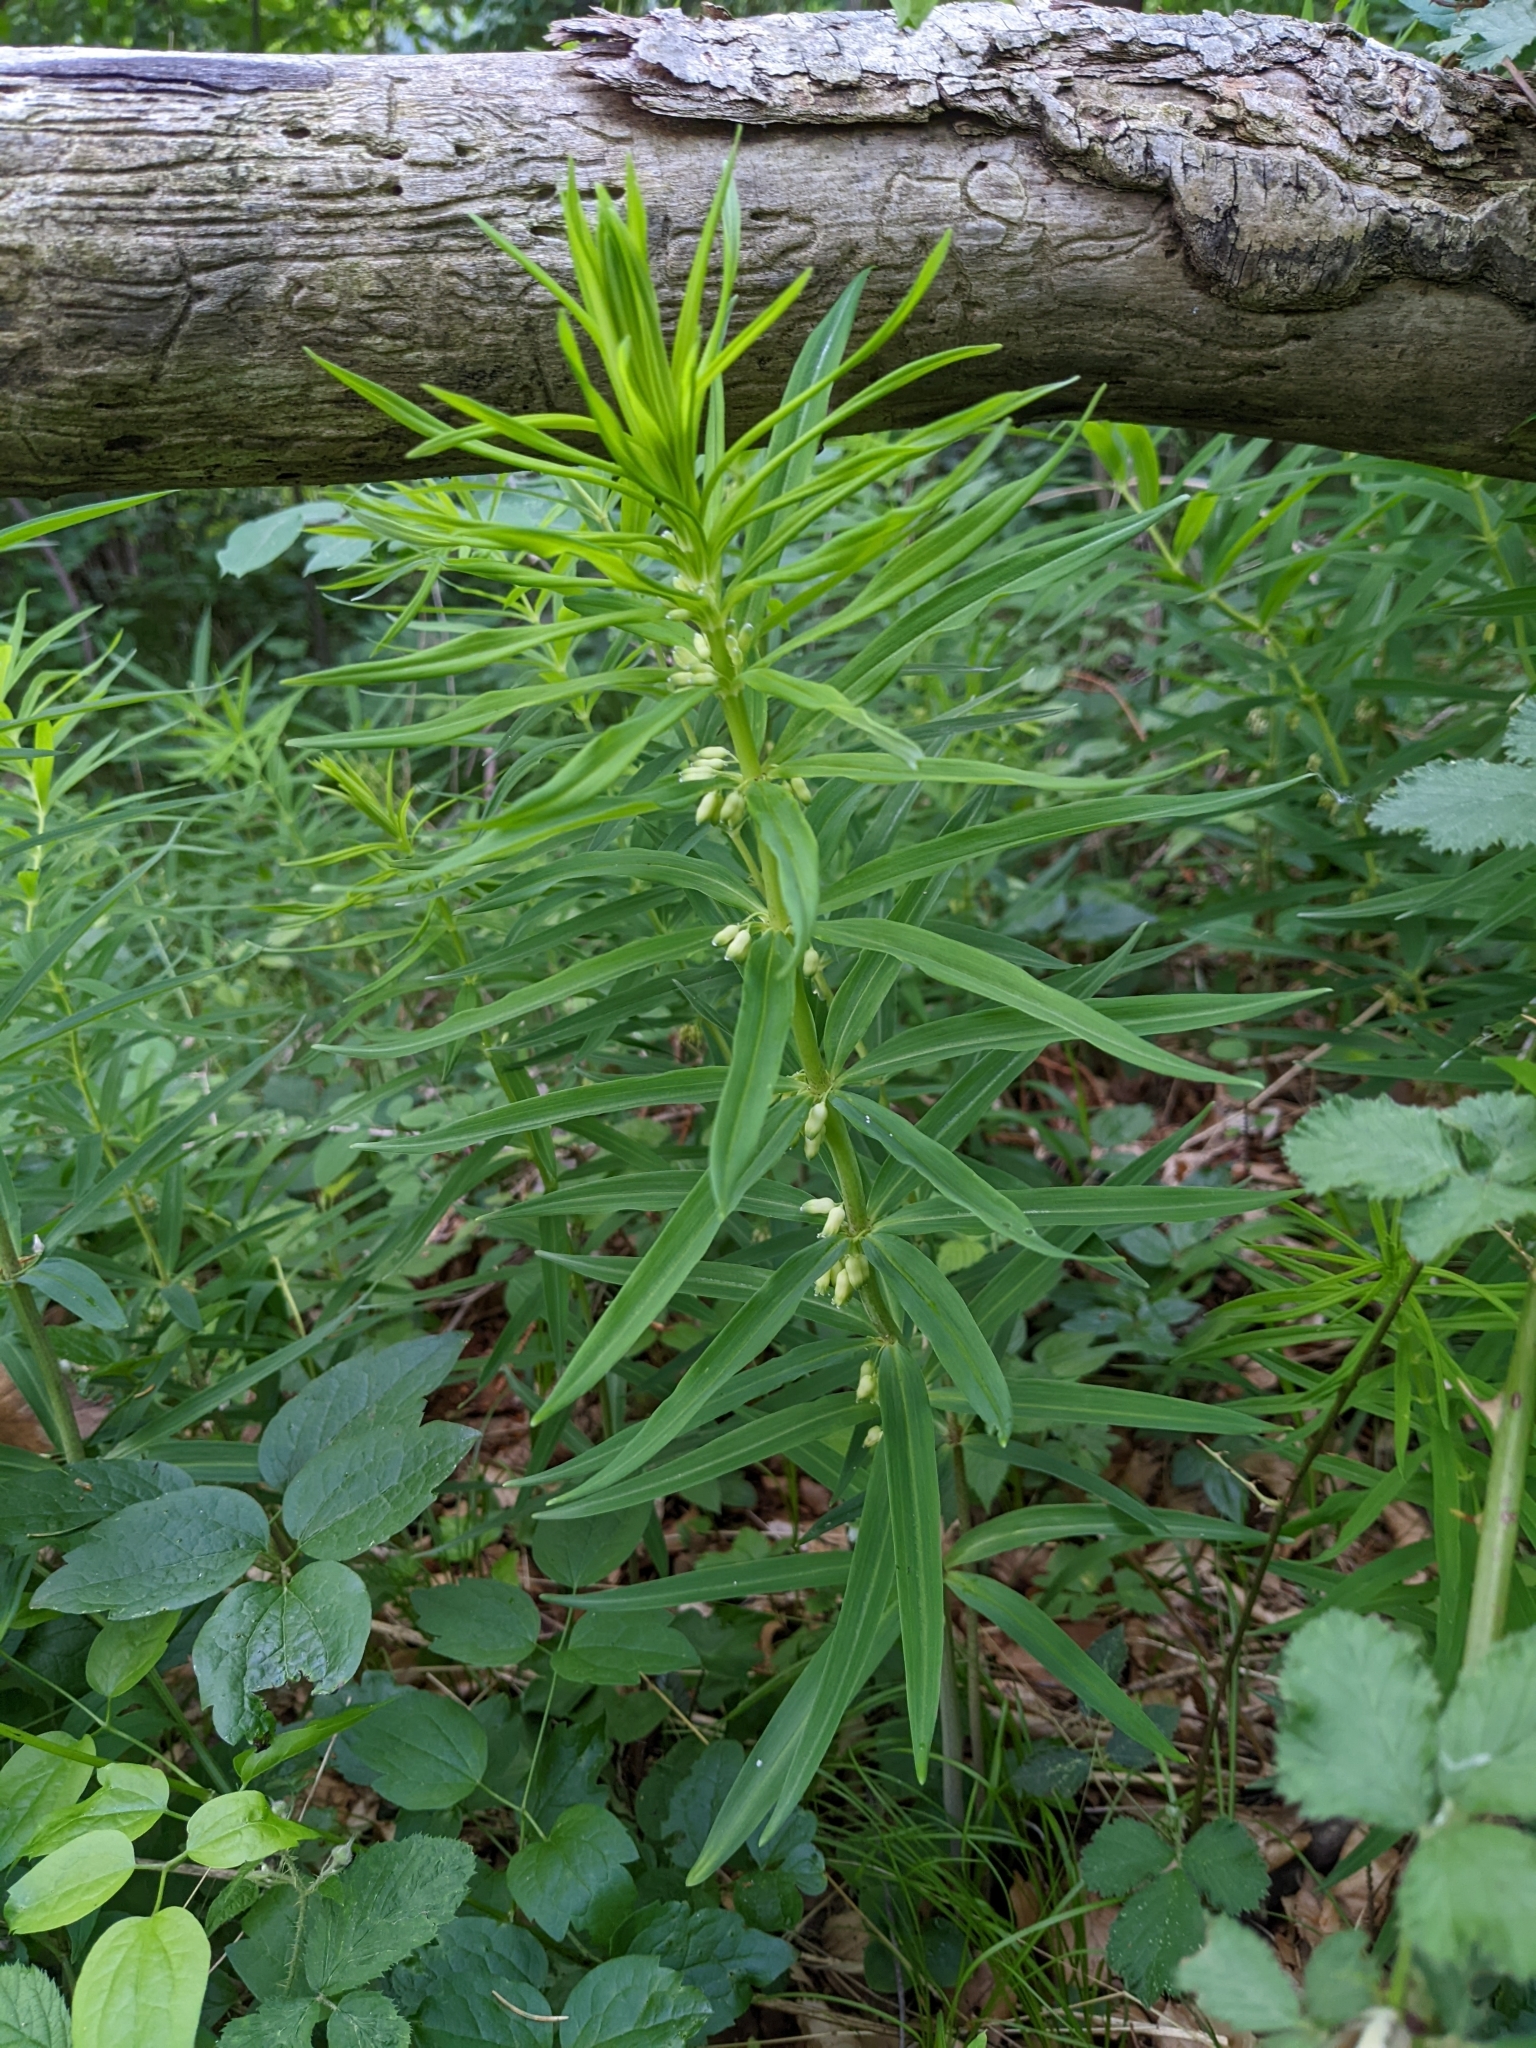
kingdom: Plantae
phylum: Tracheophyta
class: Liliopsida
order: Asparagales
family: Asparagaceae
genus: Polygonatum
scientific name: Polygonatum verticillatum
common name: Whorled solomon's-seal
